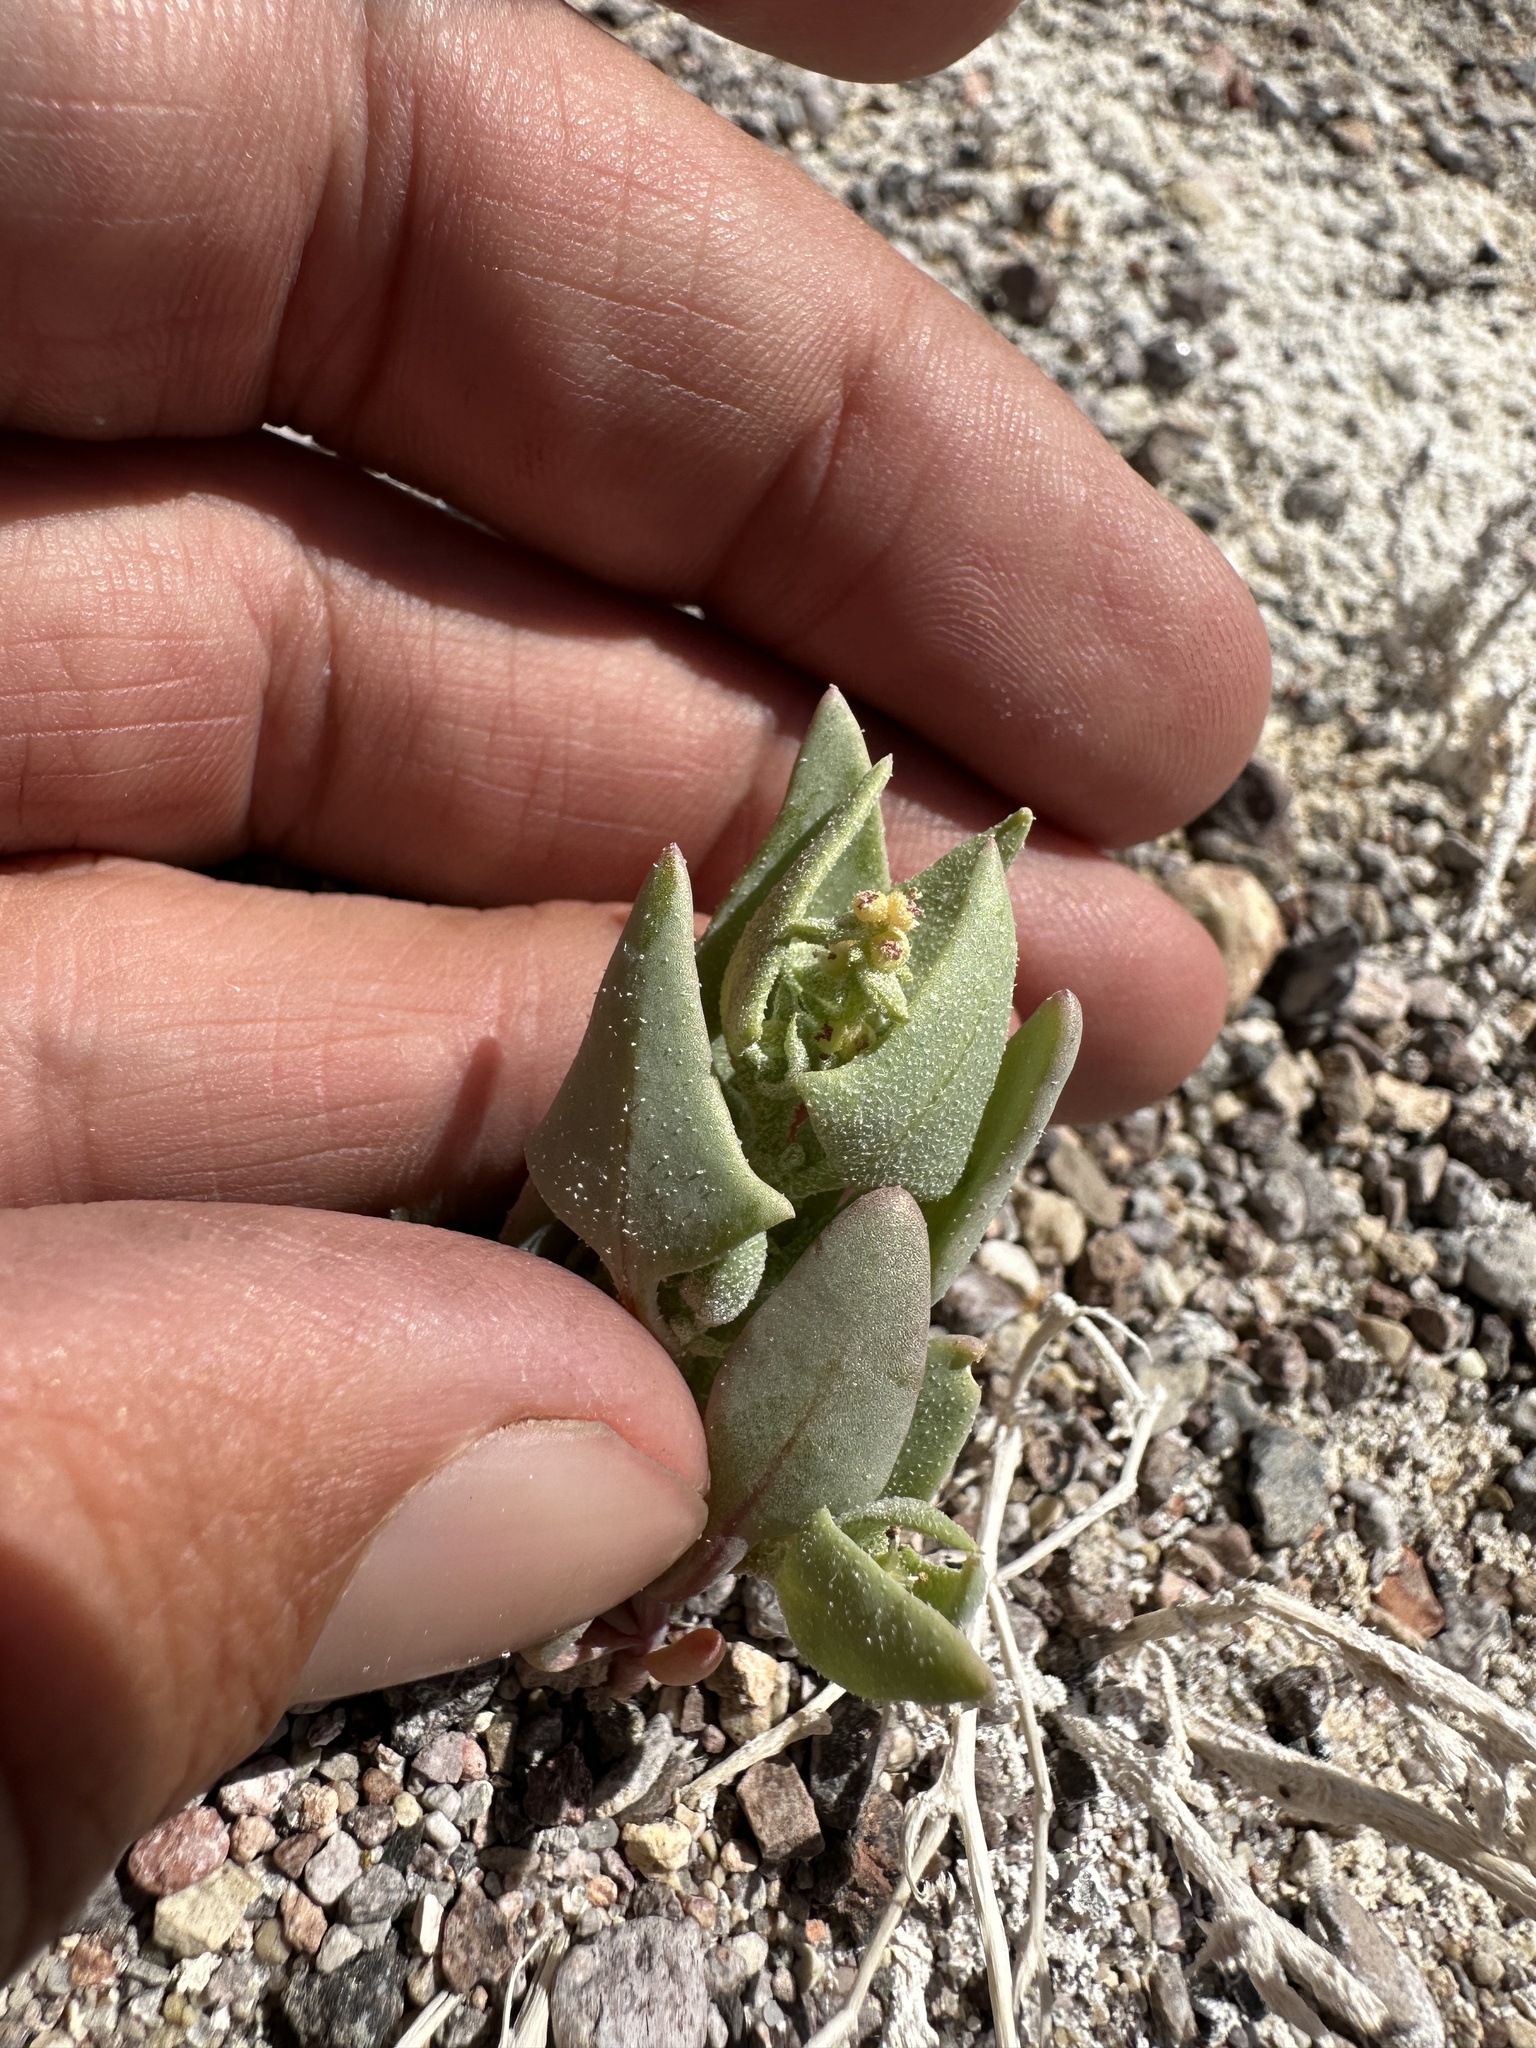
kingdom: Plantae
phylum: Tracheophyta
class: Magnoliopsida
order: Caryophyllales
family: Amaranthaceae
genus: Stutzia
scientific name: Stutzia covillei
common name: Coville's orach
